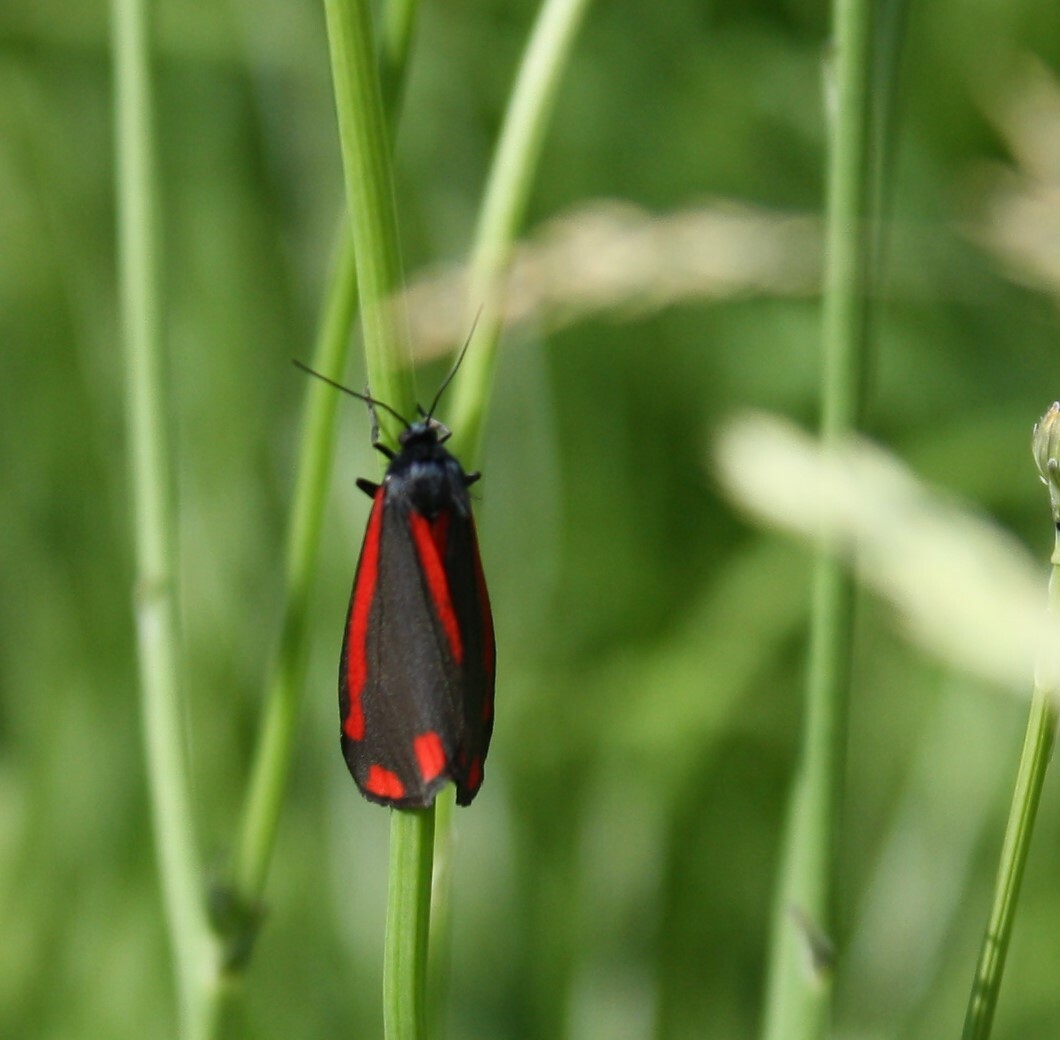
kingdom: Animalia
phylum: Arthropoda
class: Insecta
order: Lepidoptera
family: Erebidae
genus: Tyria
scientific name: Tyria jacobaeae
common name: Cinnabar
